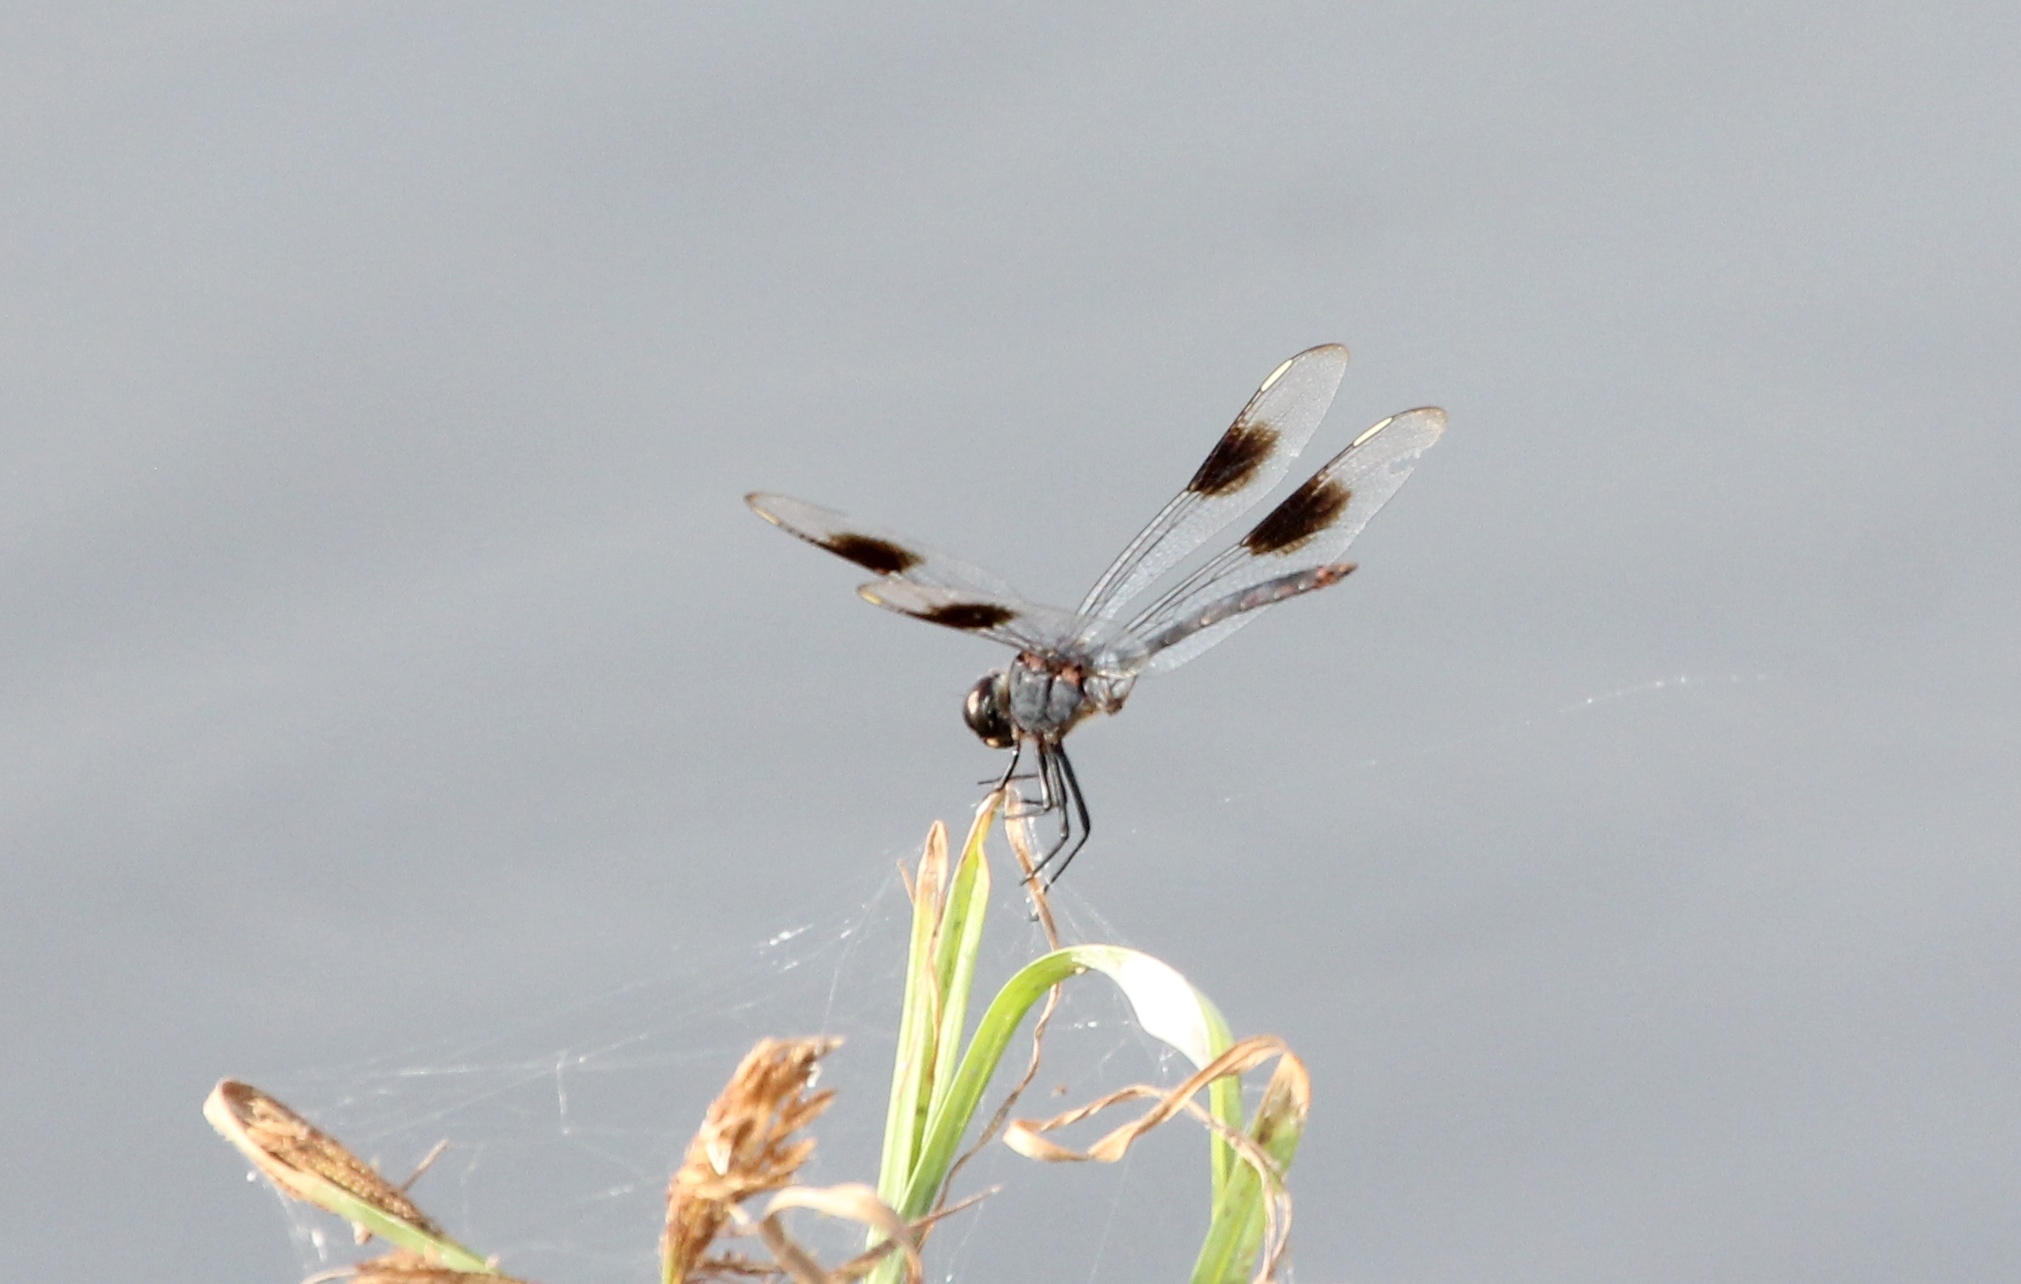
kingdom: Animalia
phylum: Arthropoda
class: Insecta
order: Odonata
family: Libellulidae
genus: Brachymesia
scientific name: Brachymesia gravida
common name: Four-spotted pennant
